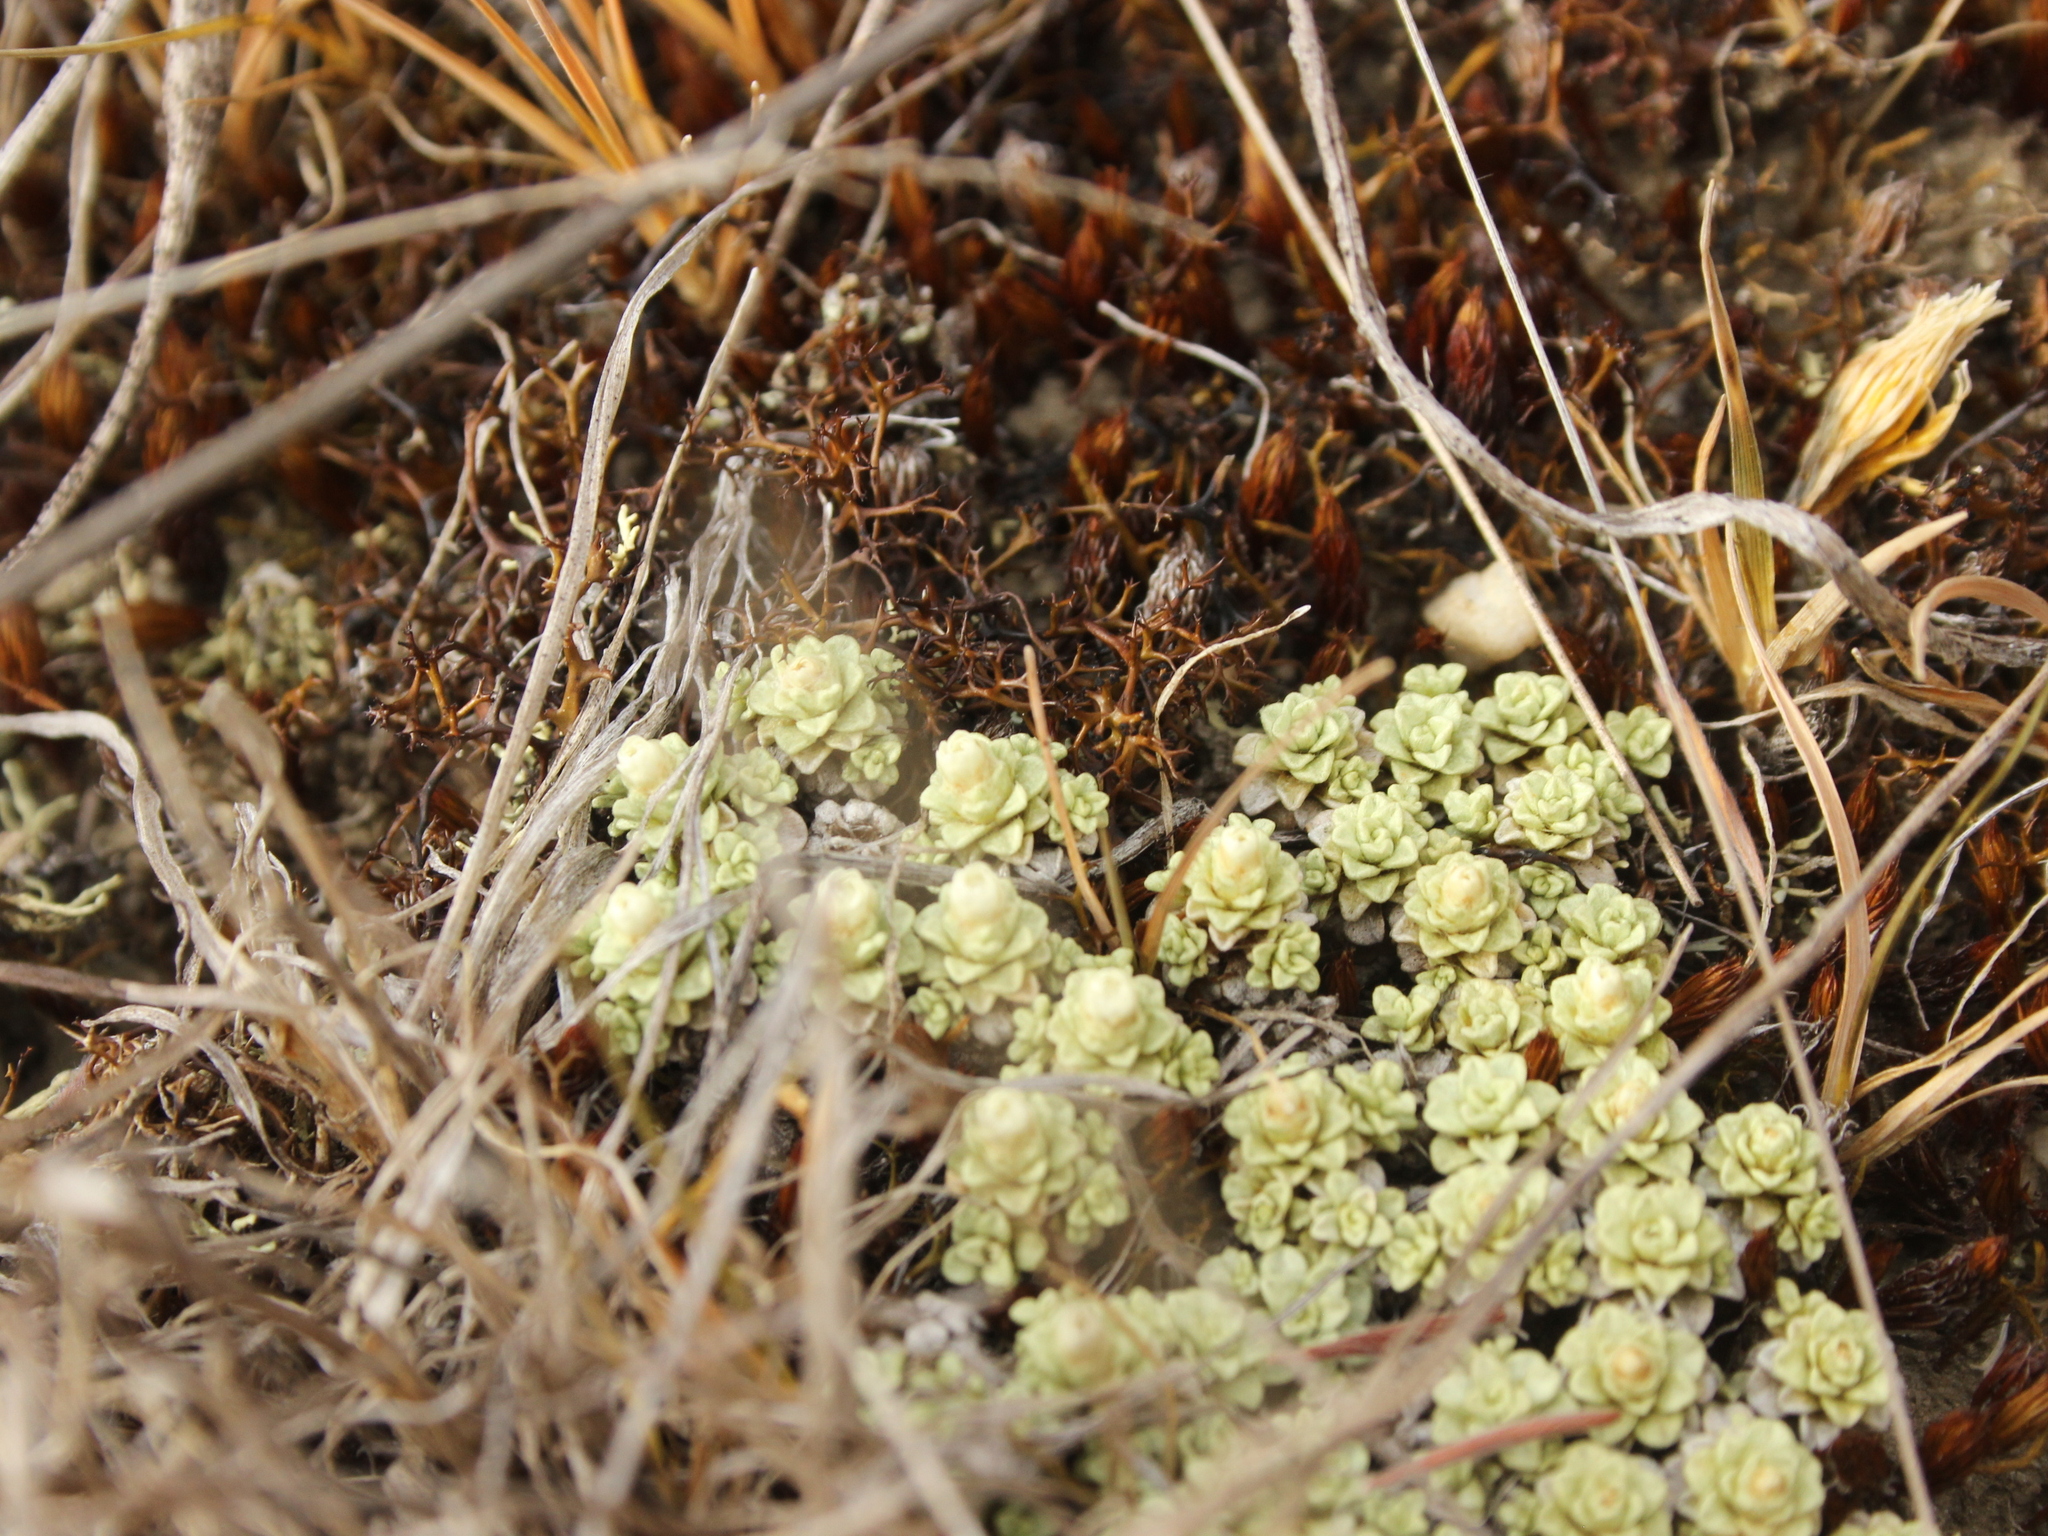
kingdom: Plantae
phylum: Tracheophyta
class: Magnoliopsida
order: Asterales
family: Asteraceae
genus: Raoulia
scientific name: Raoulia parkii
